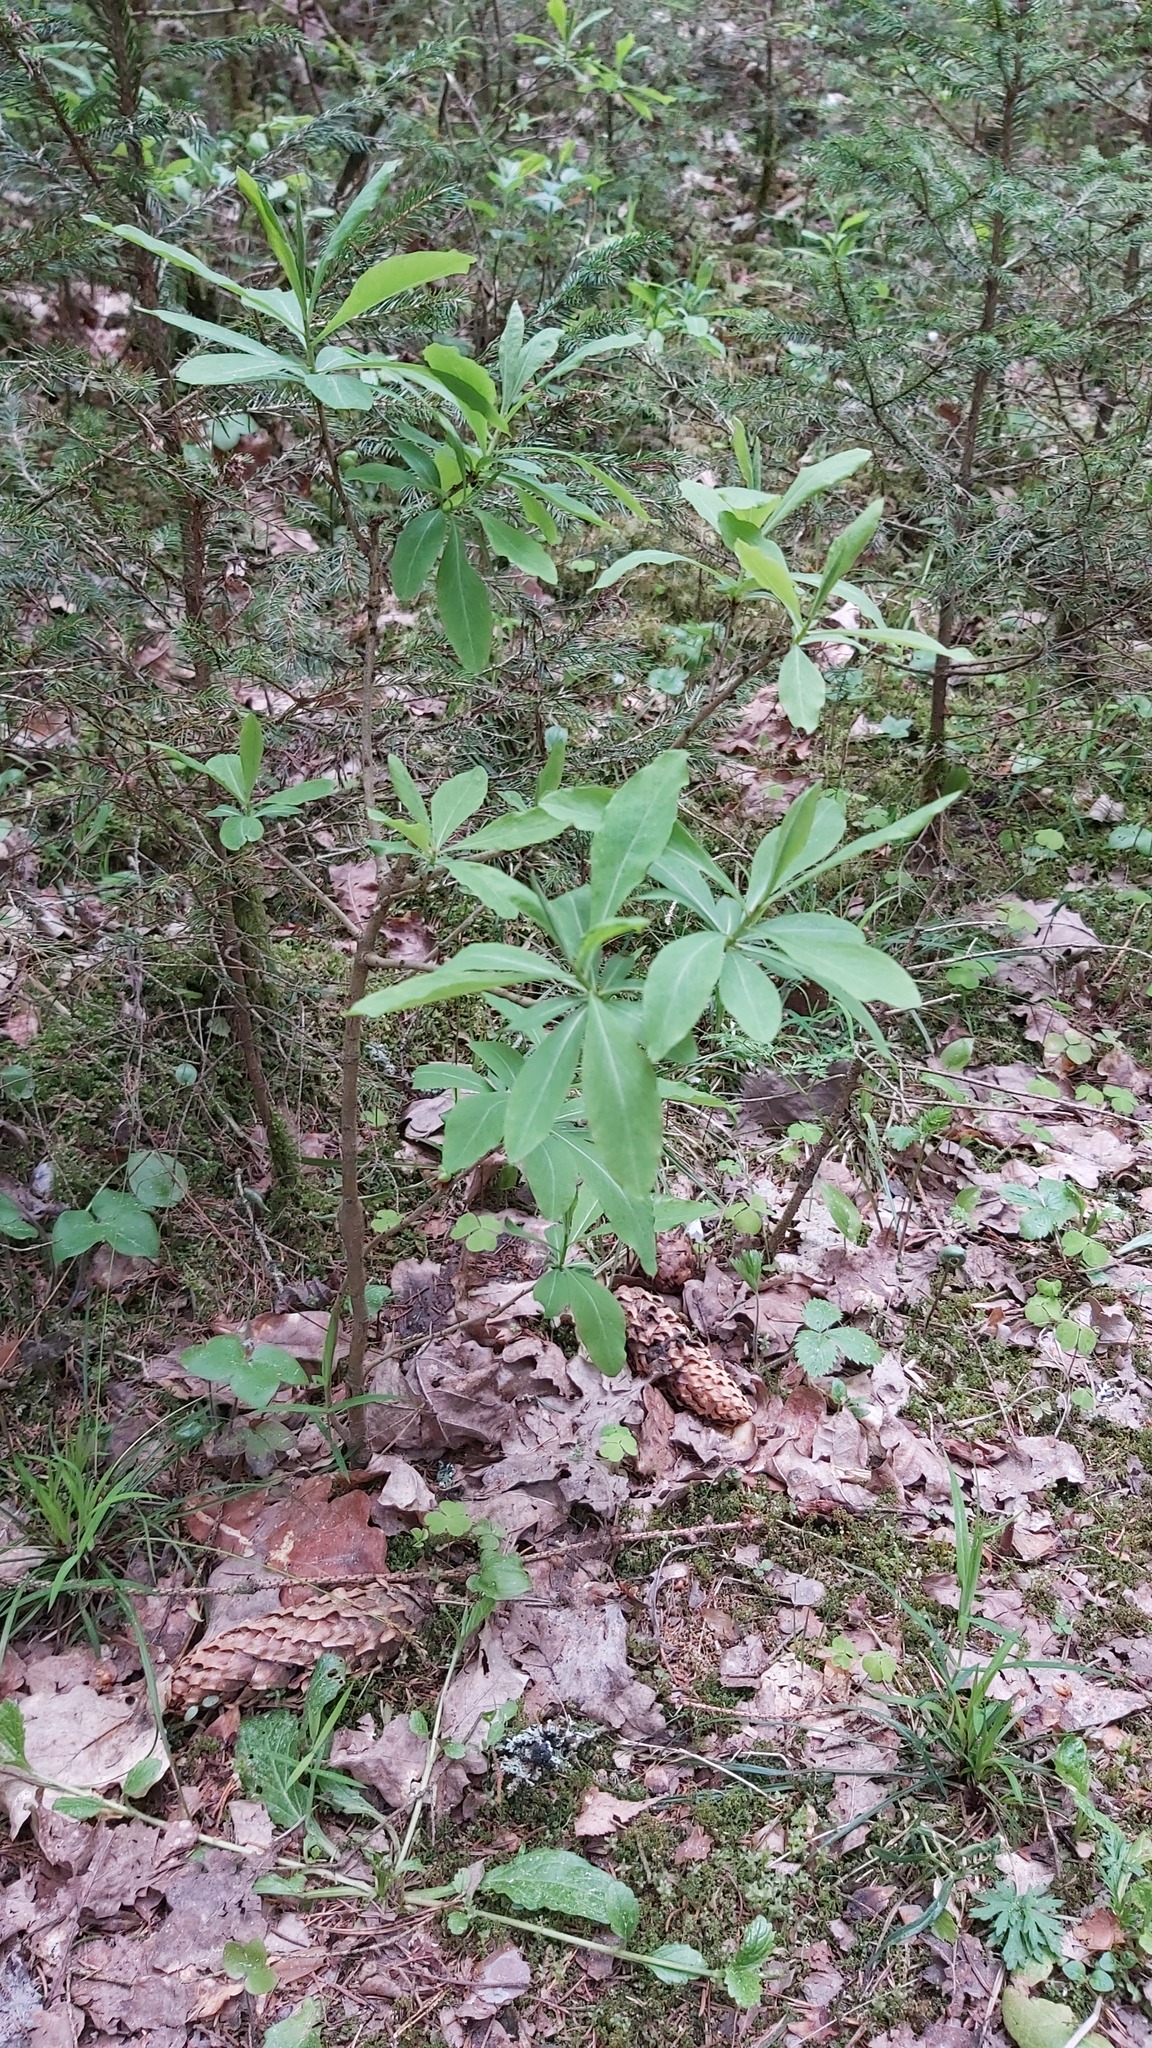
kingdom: Plantae
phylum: Tracheophyta
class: Magnoliopsida
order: Malvales
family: Thymelaeaceae
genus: Daphne
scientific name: Daphne mezereum
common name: Mezereon
